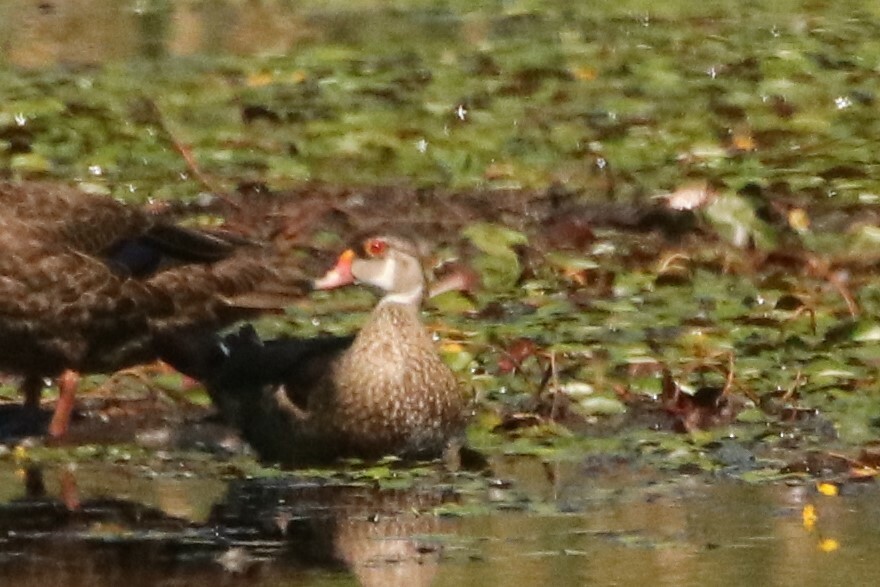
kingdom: Animalia
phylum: Chordata
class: Aves
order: Anseriformes
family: Anatidae
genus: Aix
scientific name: Aix sponsa
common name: Wood duck
